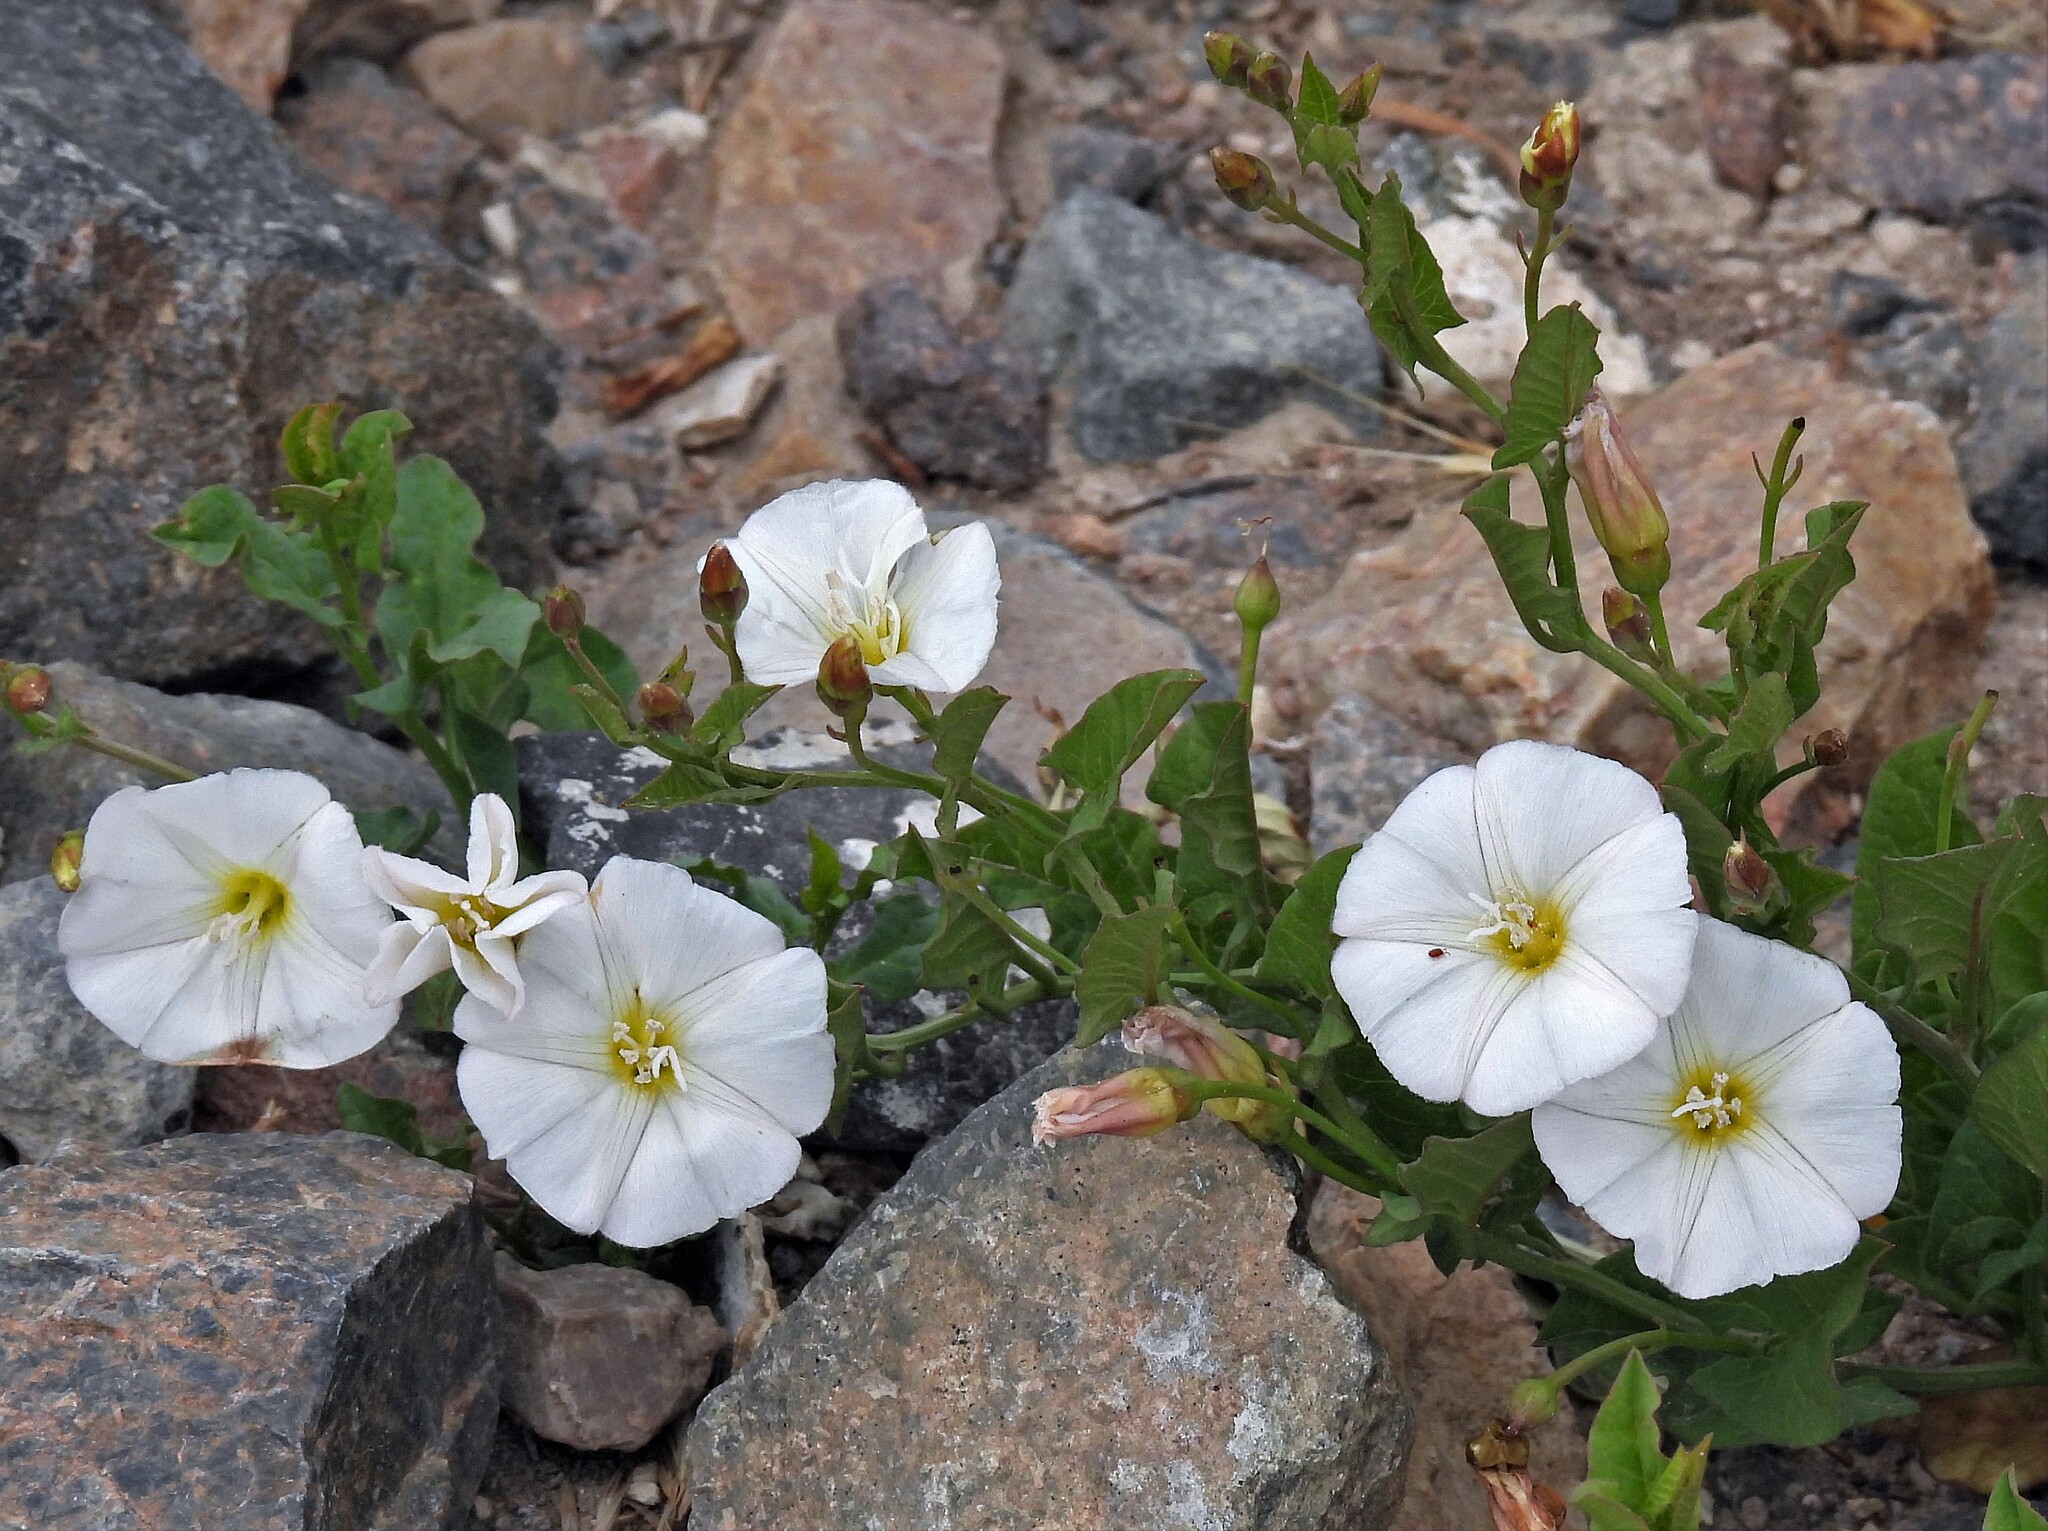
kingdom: Plantae
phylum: Tracheophyta
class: Magnoliopsida
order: Solanales
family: Convolvulaceae
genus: Convolvulus
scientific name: Convolvulus arvensis
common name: Field bindweed
